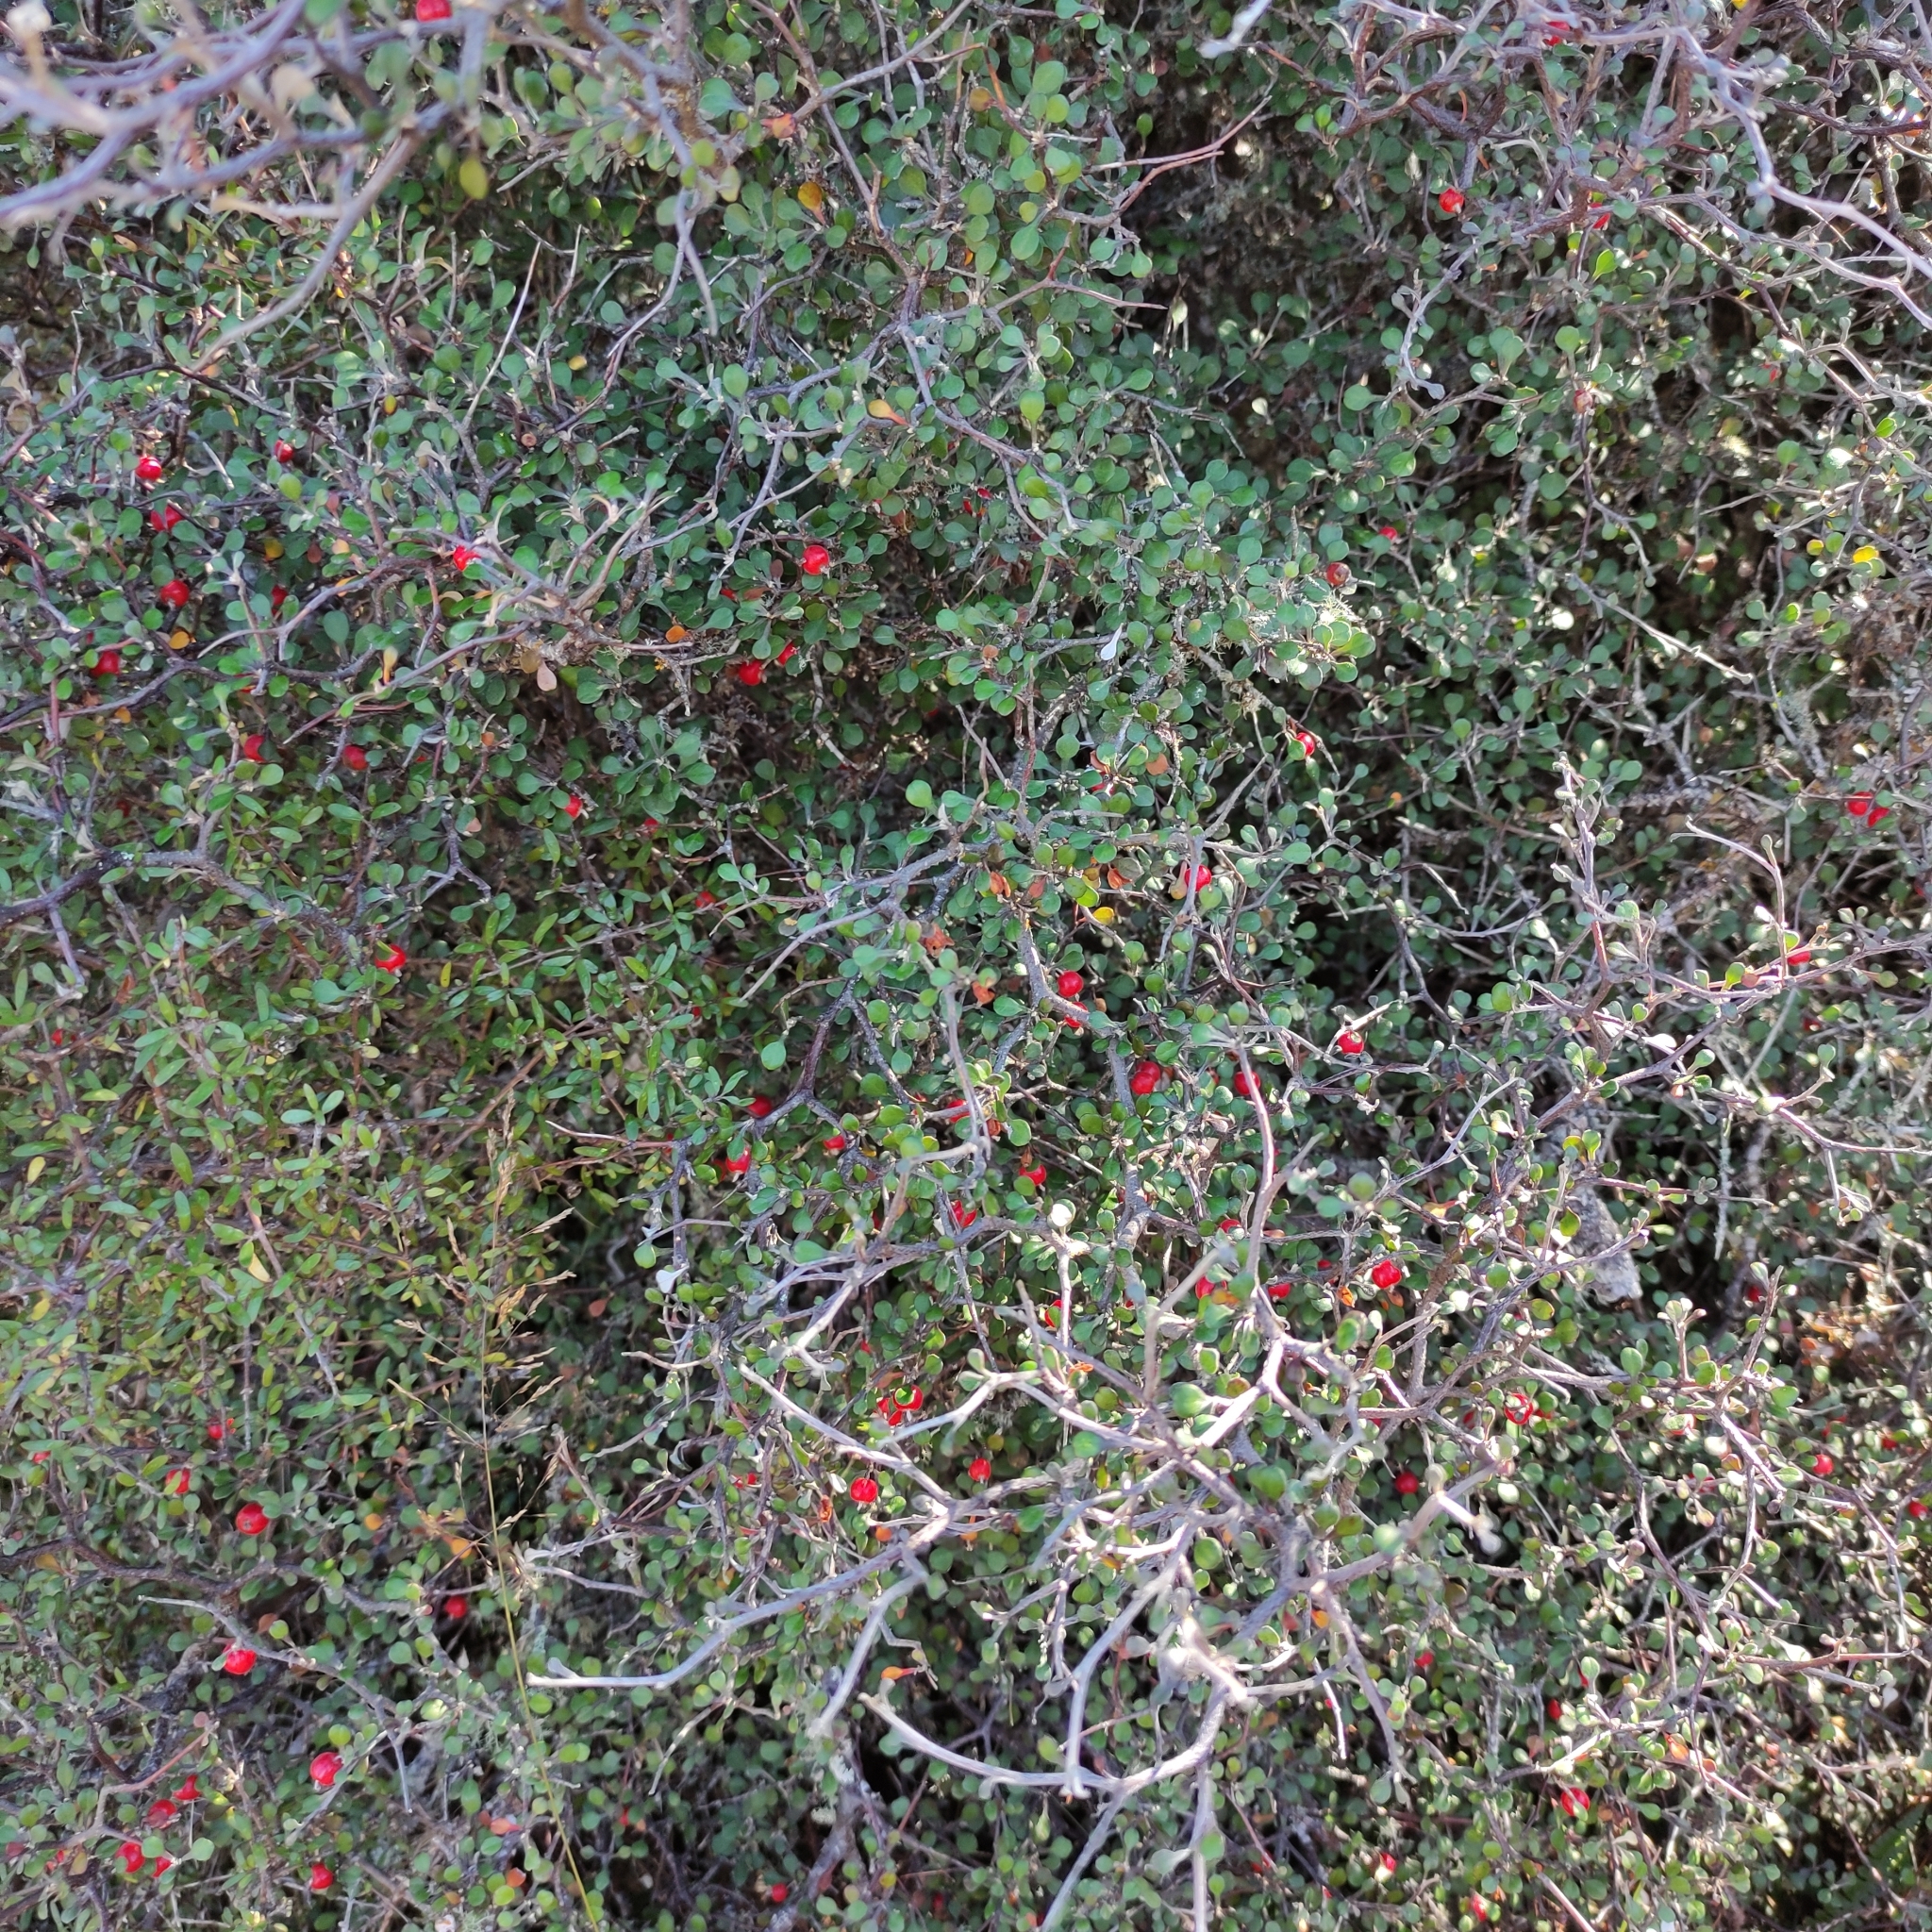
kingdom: Plantae
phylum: Tracheophyta
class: Magnoliopsida
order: Asterales
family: Argophyllaceae
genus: Corokia
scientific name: Corokia cotoneaster
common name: Wire nettingbush
